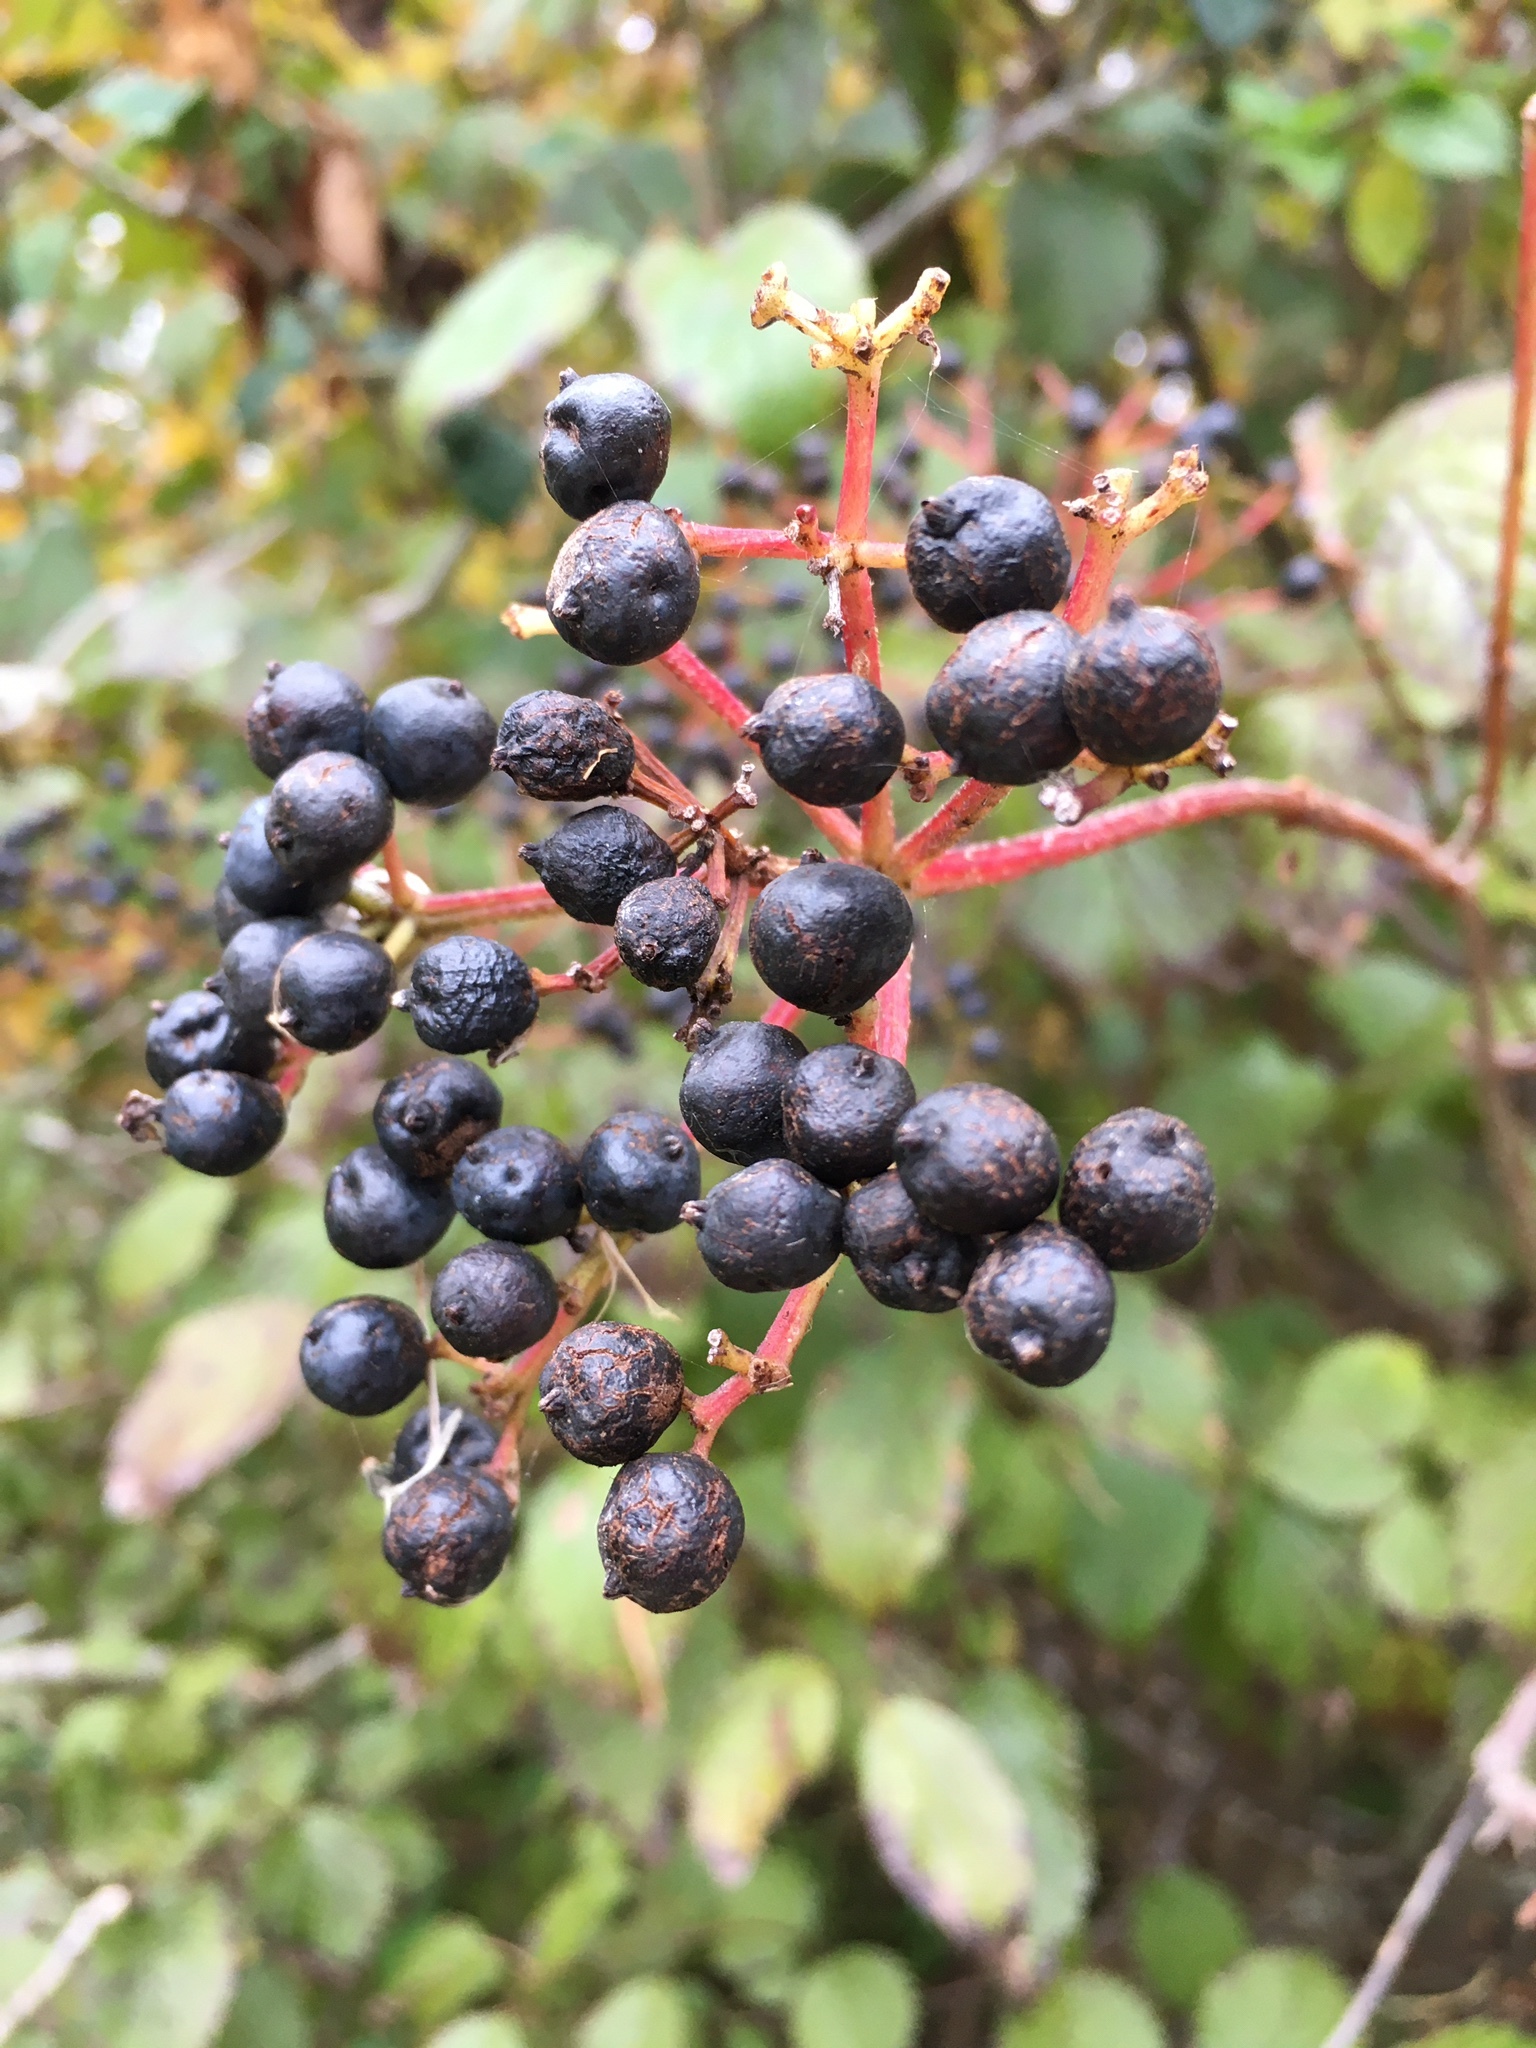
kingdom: Plantae
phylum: Tracheophyta
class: Magnoliopsida
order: Dipsacales
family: Viburnaceae
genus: Viburnum
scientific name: Viburnum dentatum
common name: Arrow-wood
